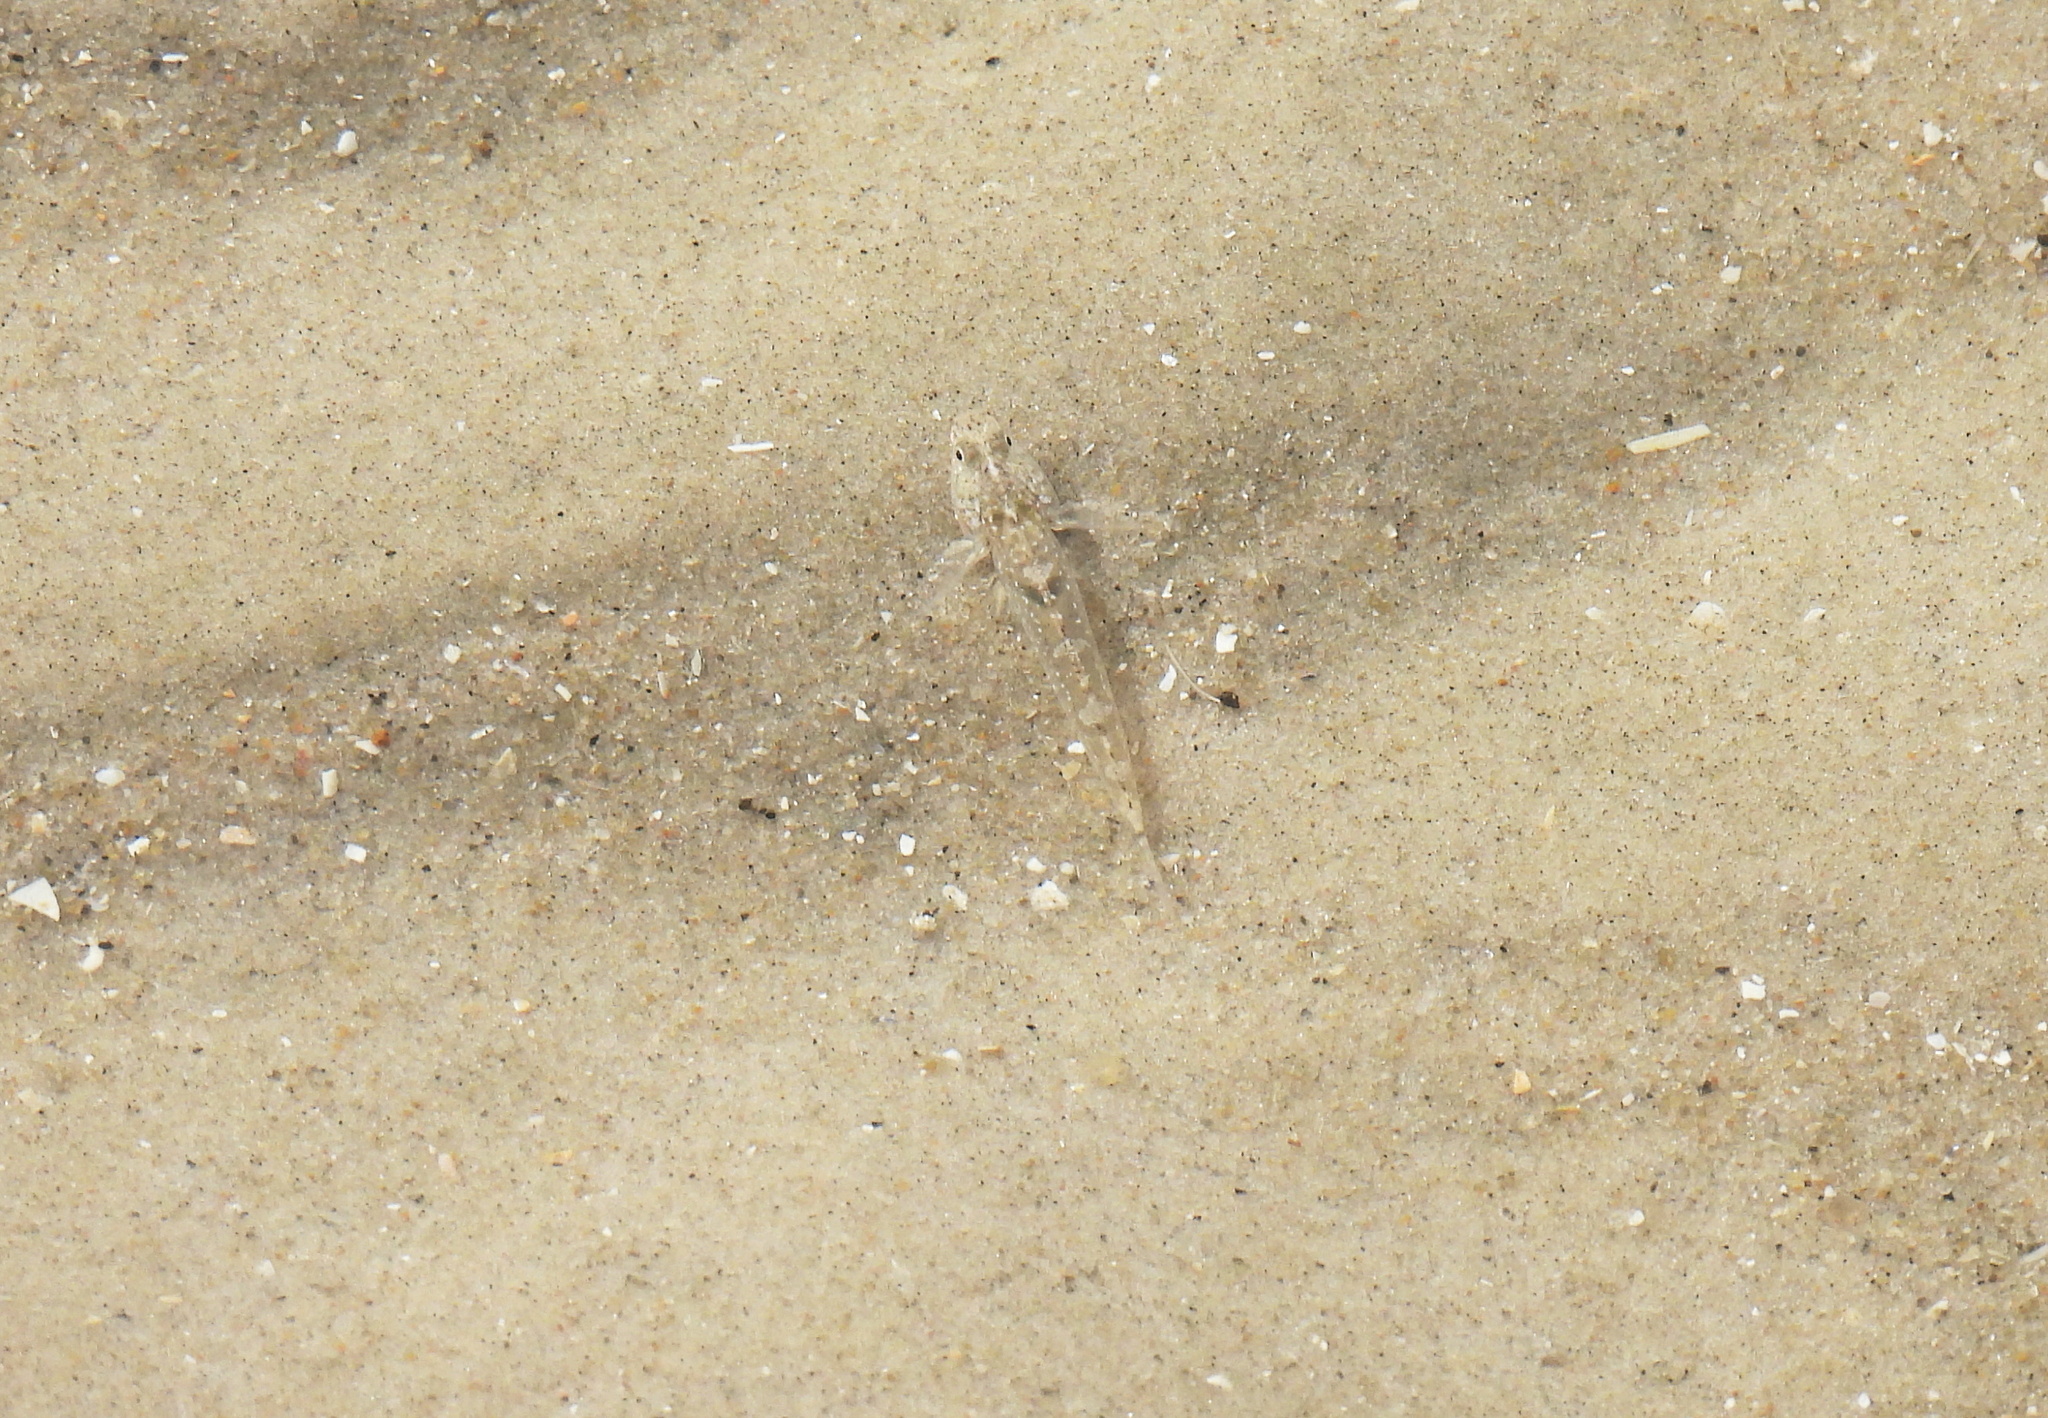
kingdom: Animalia
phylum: Chordata
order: Perciformes
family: Gobiidae
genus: Pomatoschistus
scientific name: Pomatoschistus microps
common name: Common goby
